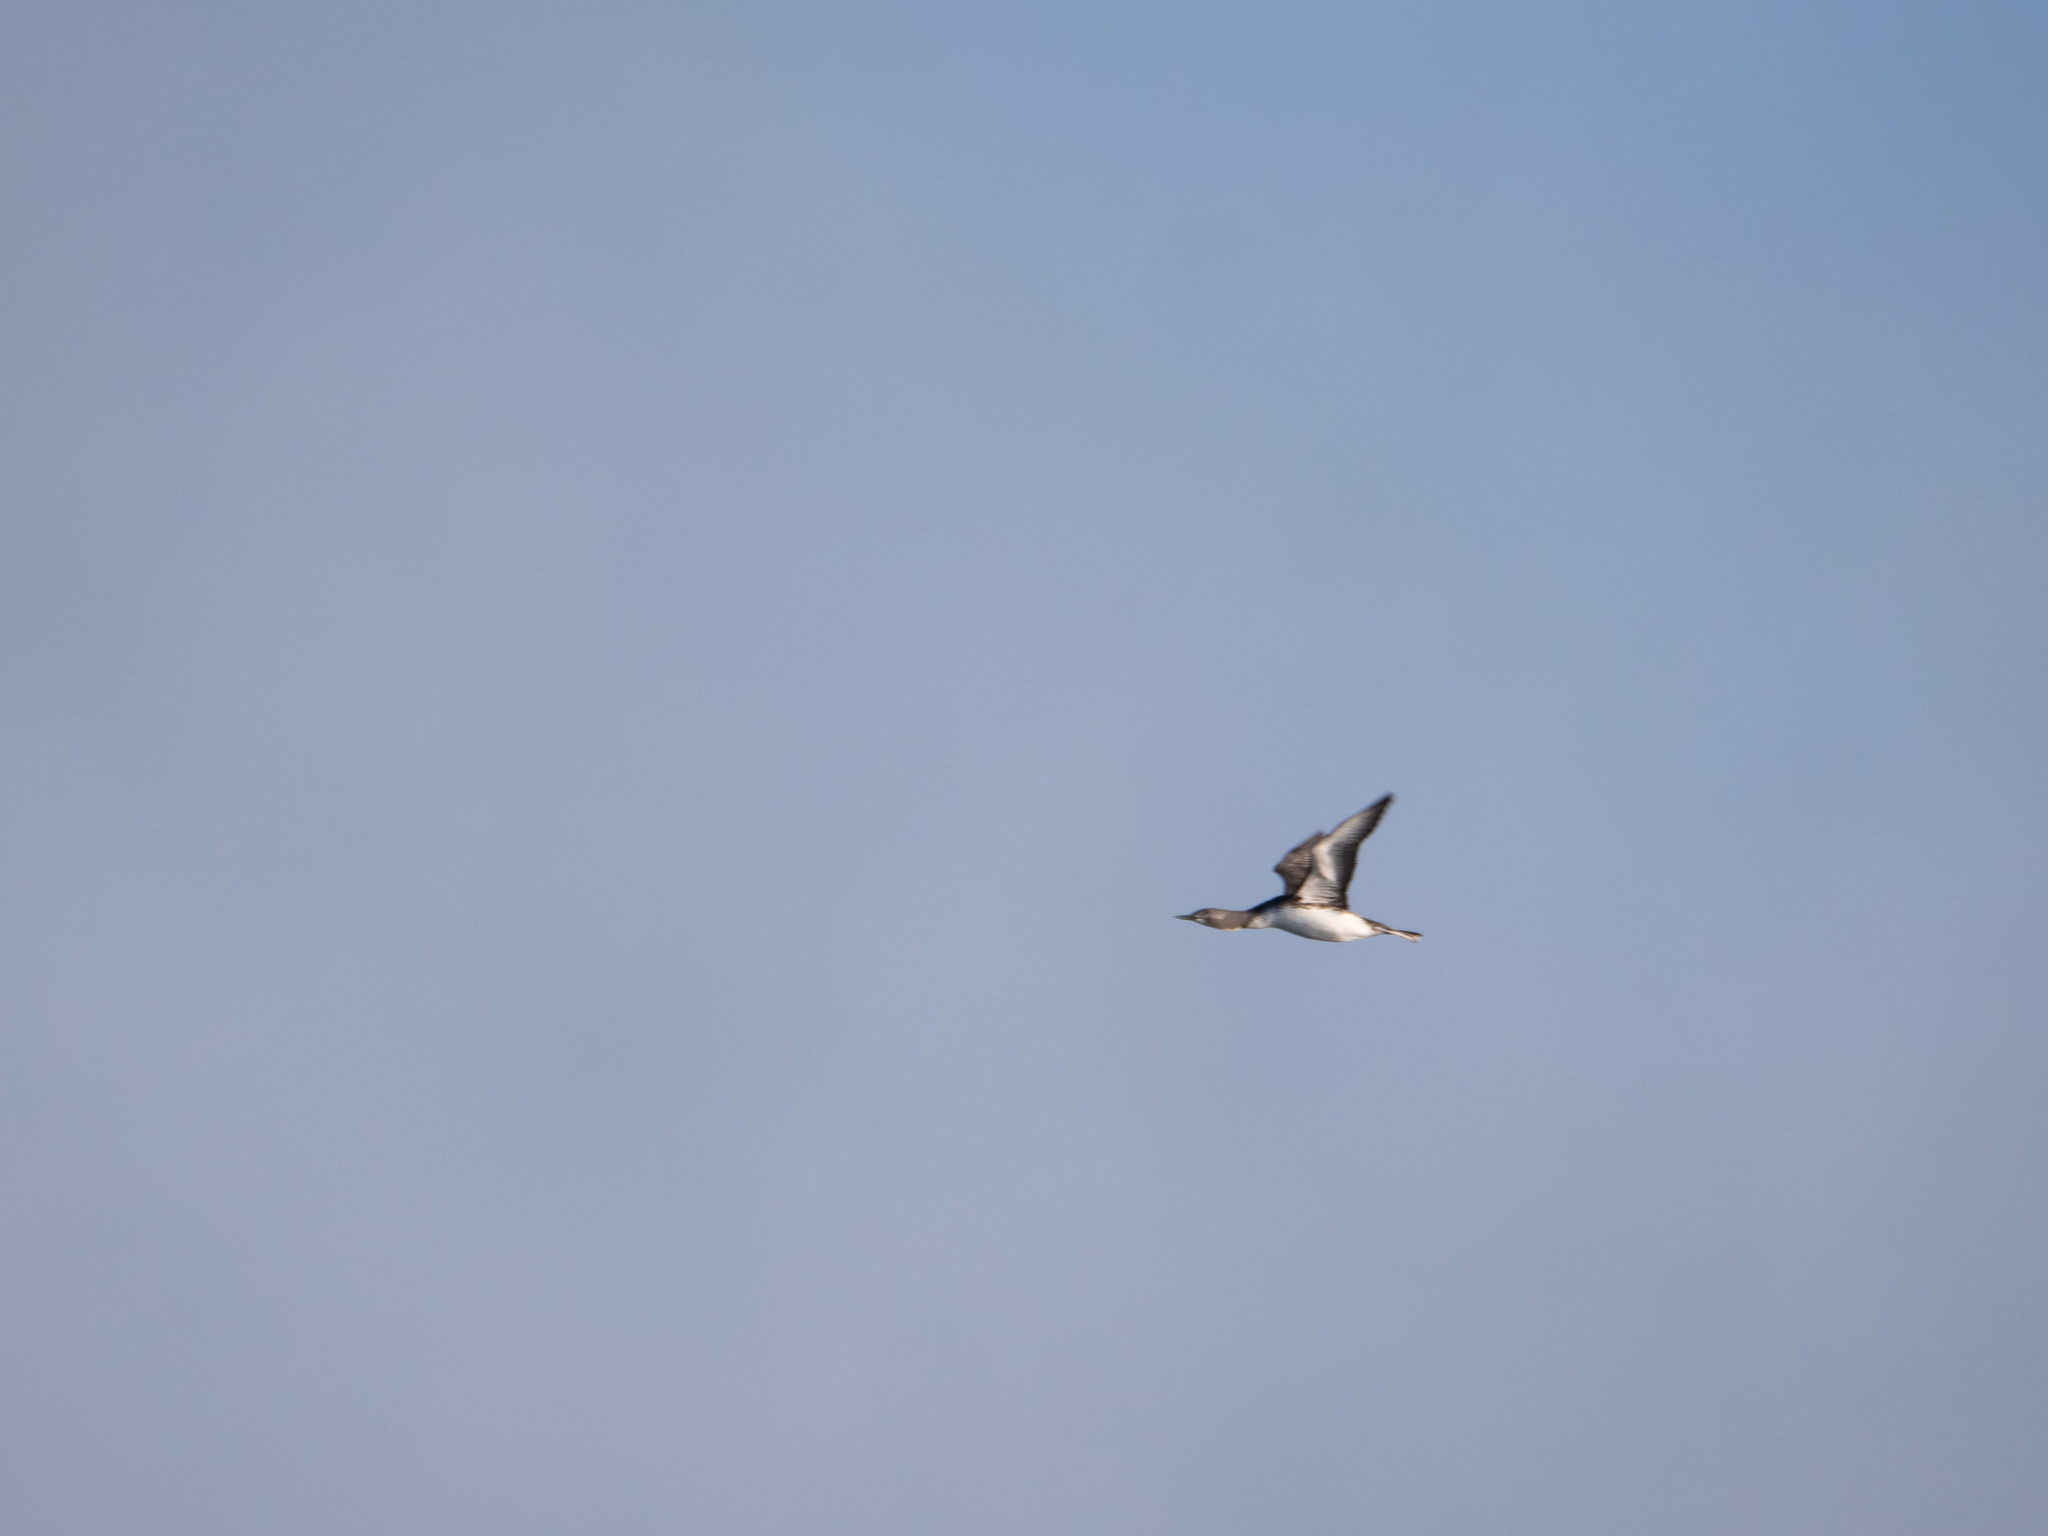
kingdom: Animalia
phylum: Chordata
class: Aves
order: Gaviiformes
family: Gaviidae
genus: Gavia
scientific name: Gavia stellata
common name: Red-throated loon
